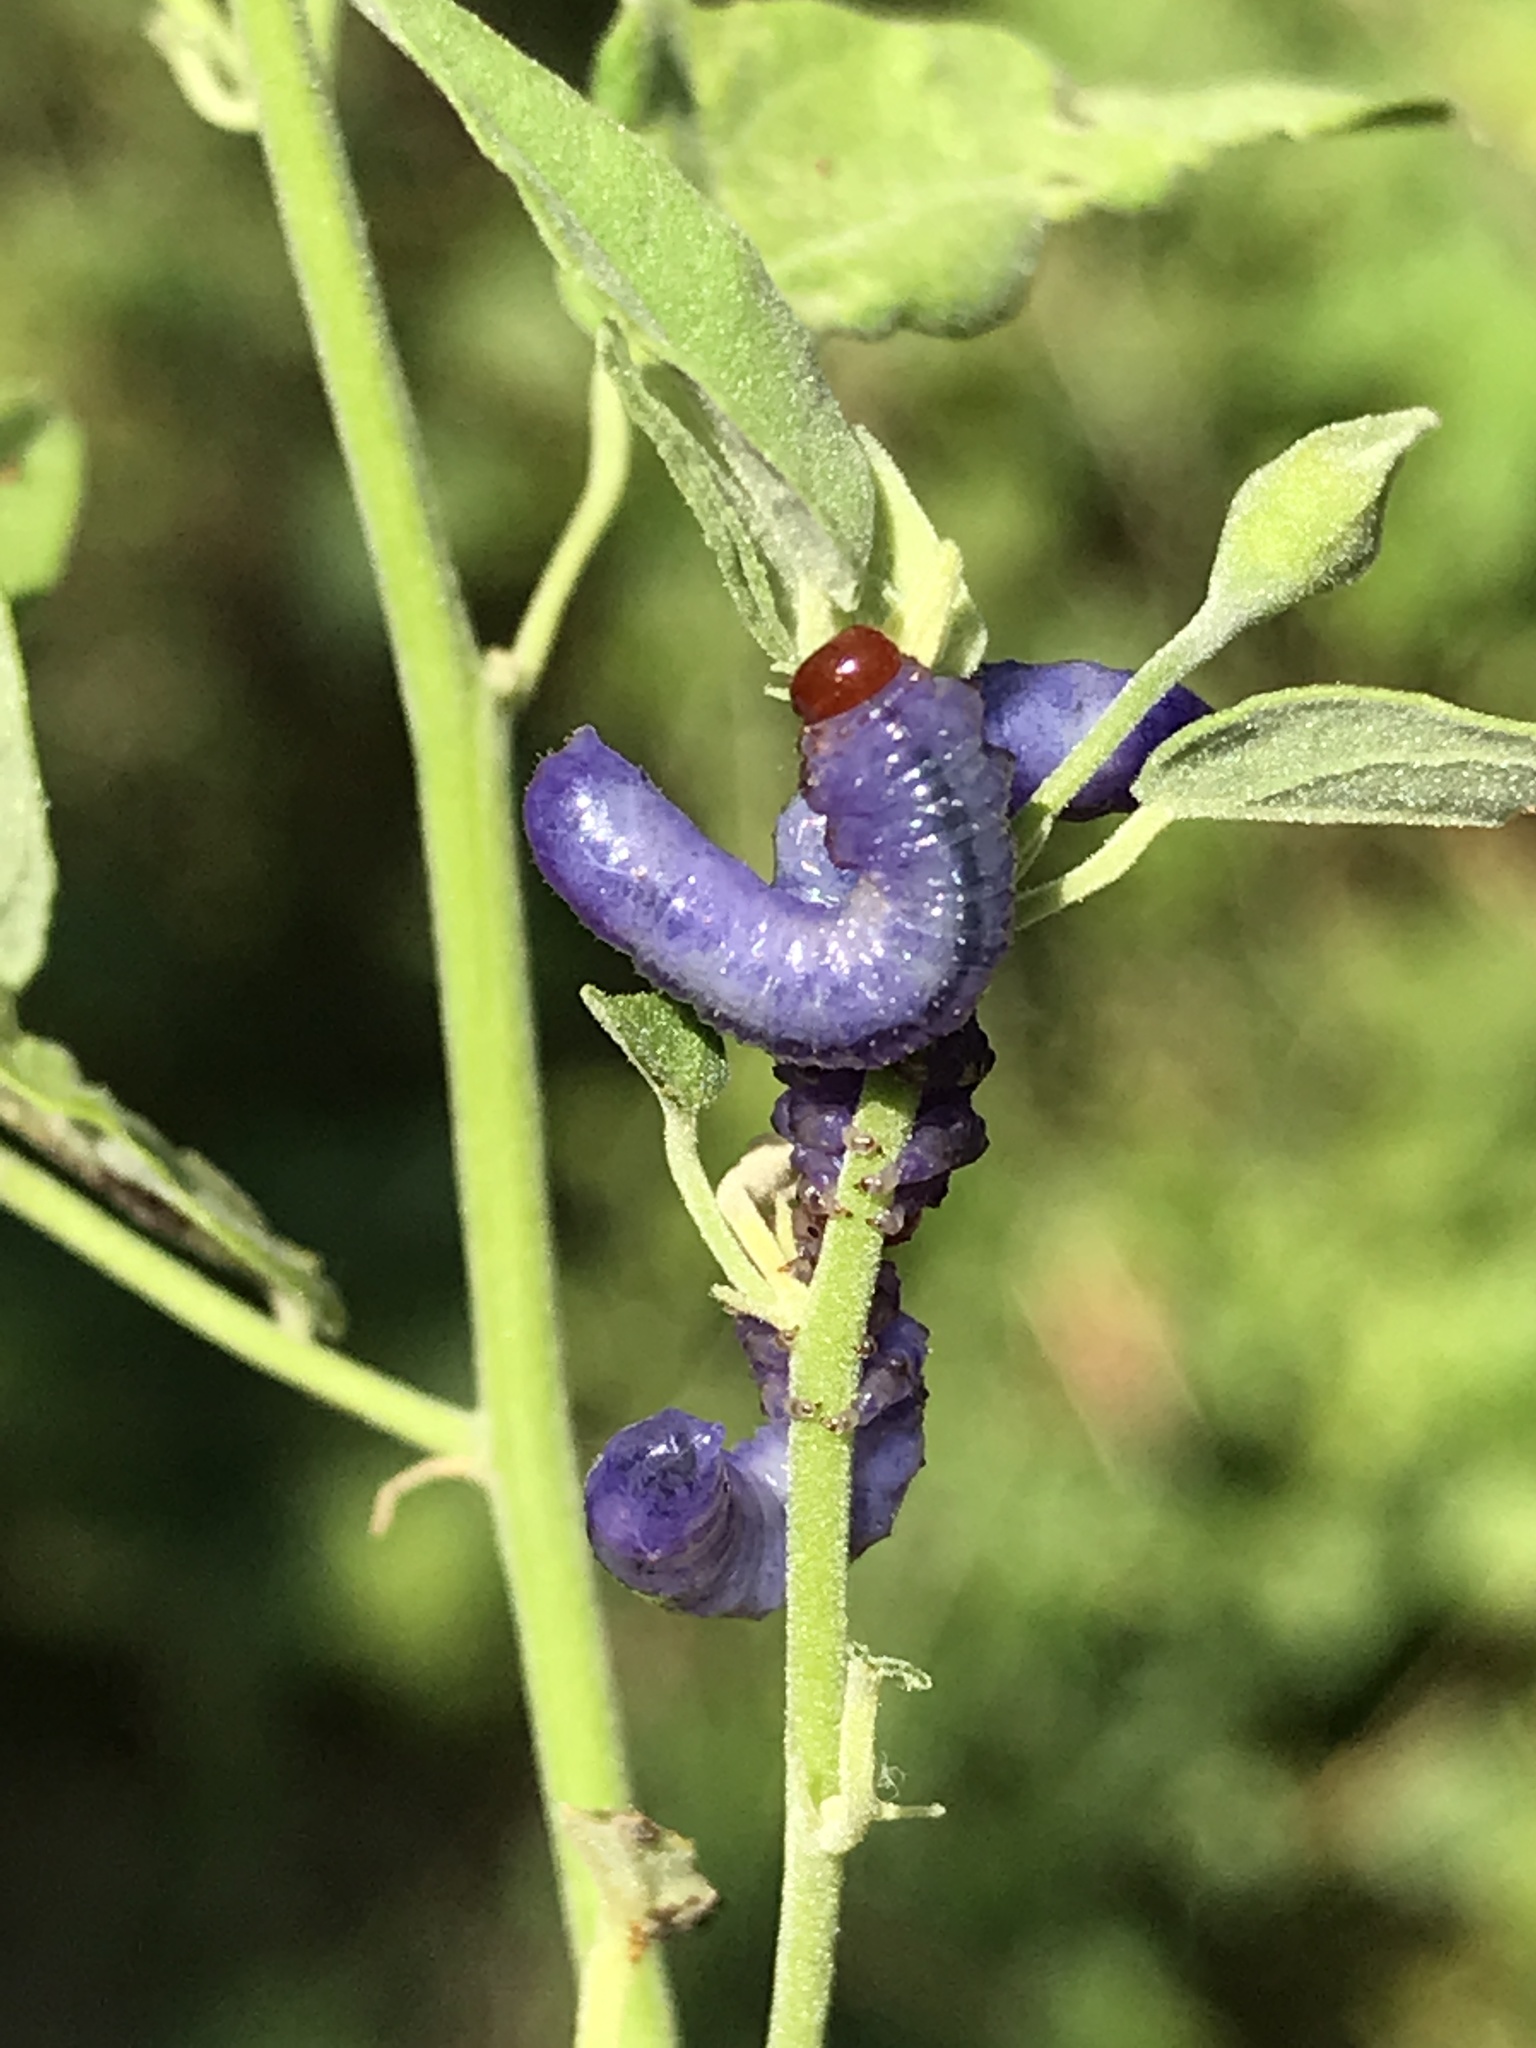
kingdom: Animalia
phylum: Arthropoda
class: Insecta
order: Hymenoptera
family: Argidae
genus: Neoptilia
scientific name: Neoptilia
